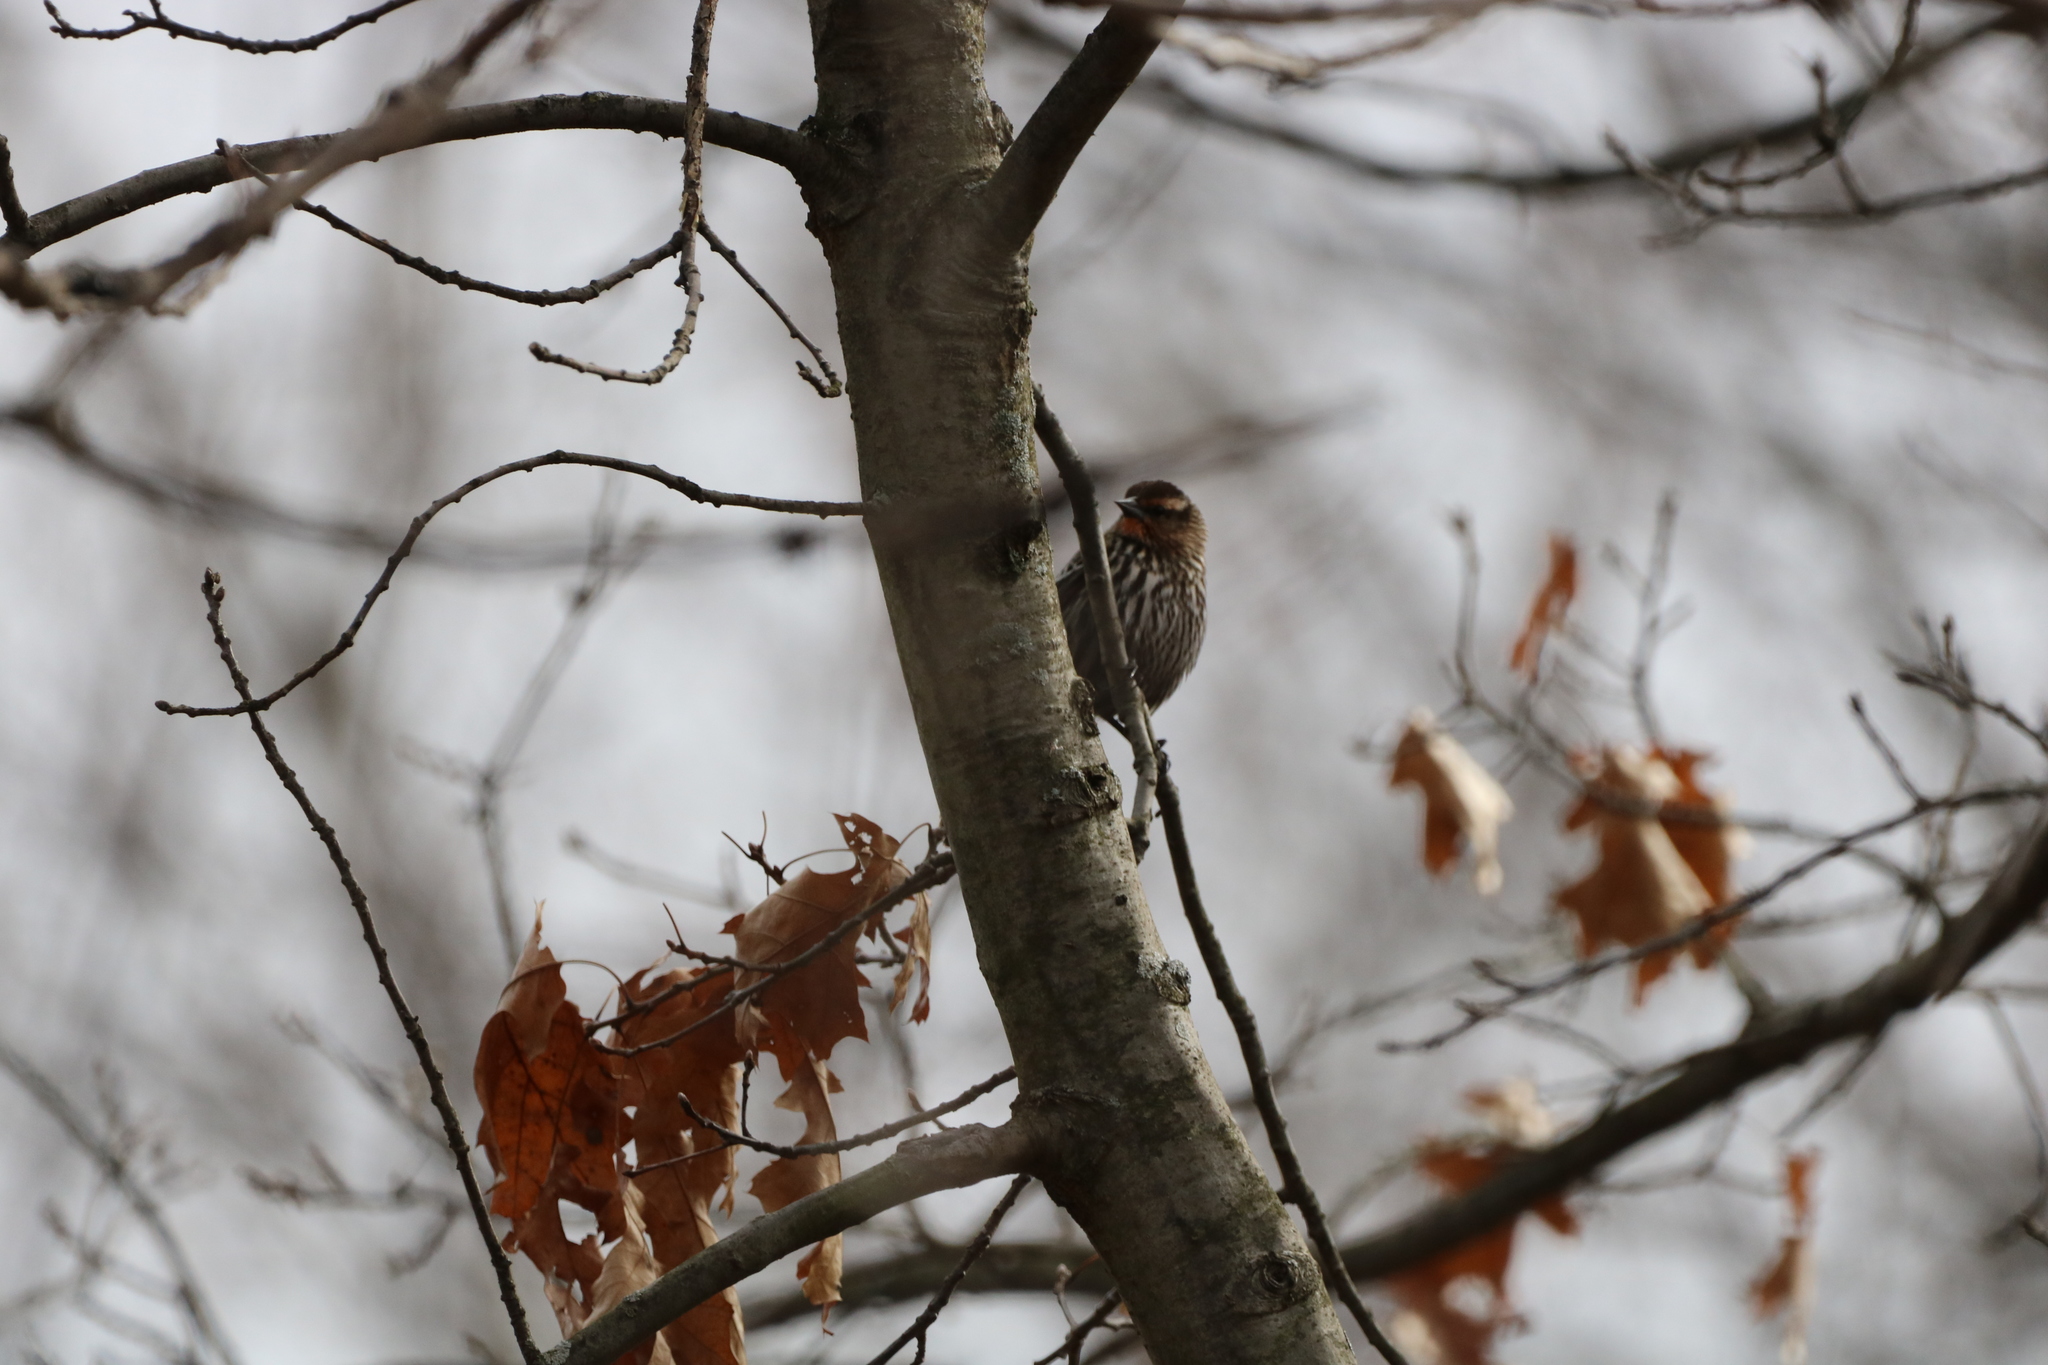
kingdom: Animalia
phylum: Chordata
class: Aves
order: Passeriformes
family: Icteridae
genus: Agelaius
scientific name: Agelaius phoeniceus
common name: Red-winged blackbird
